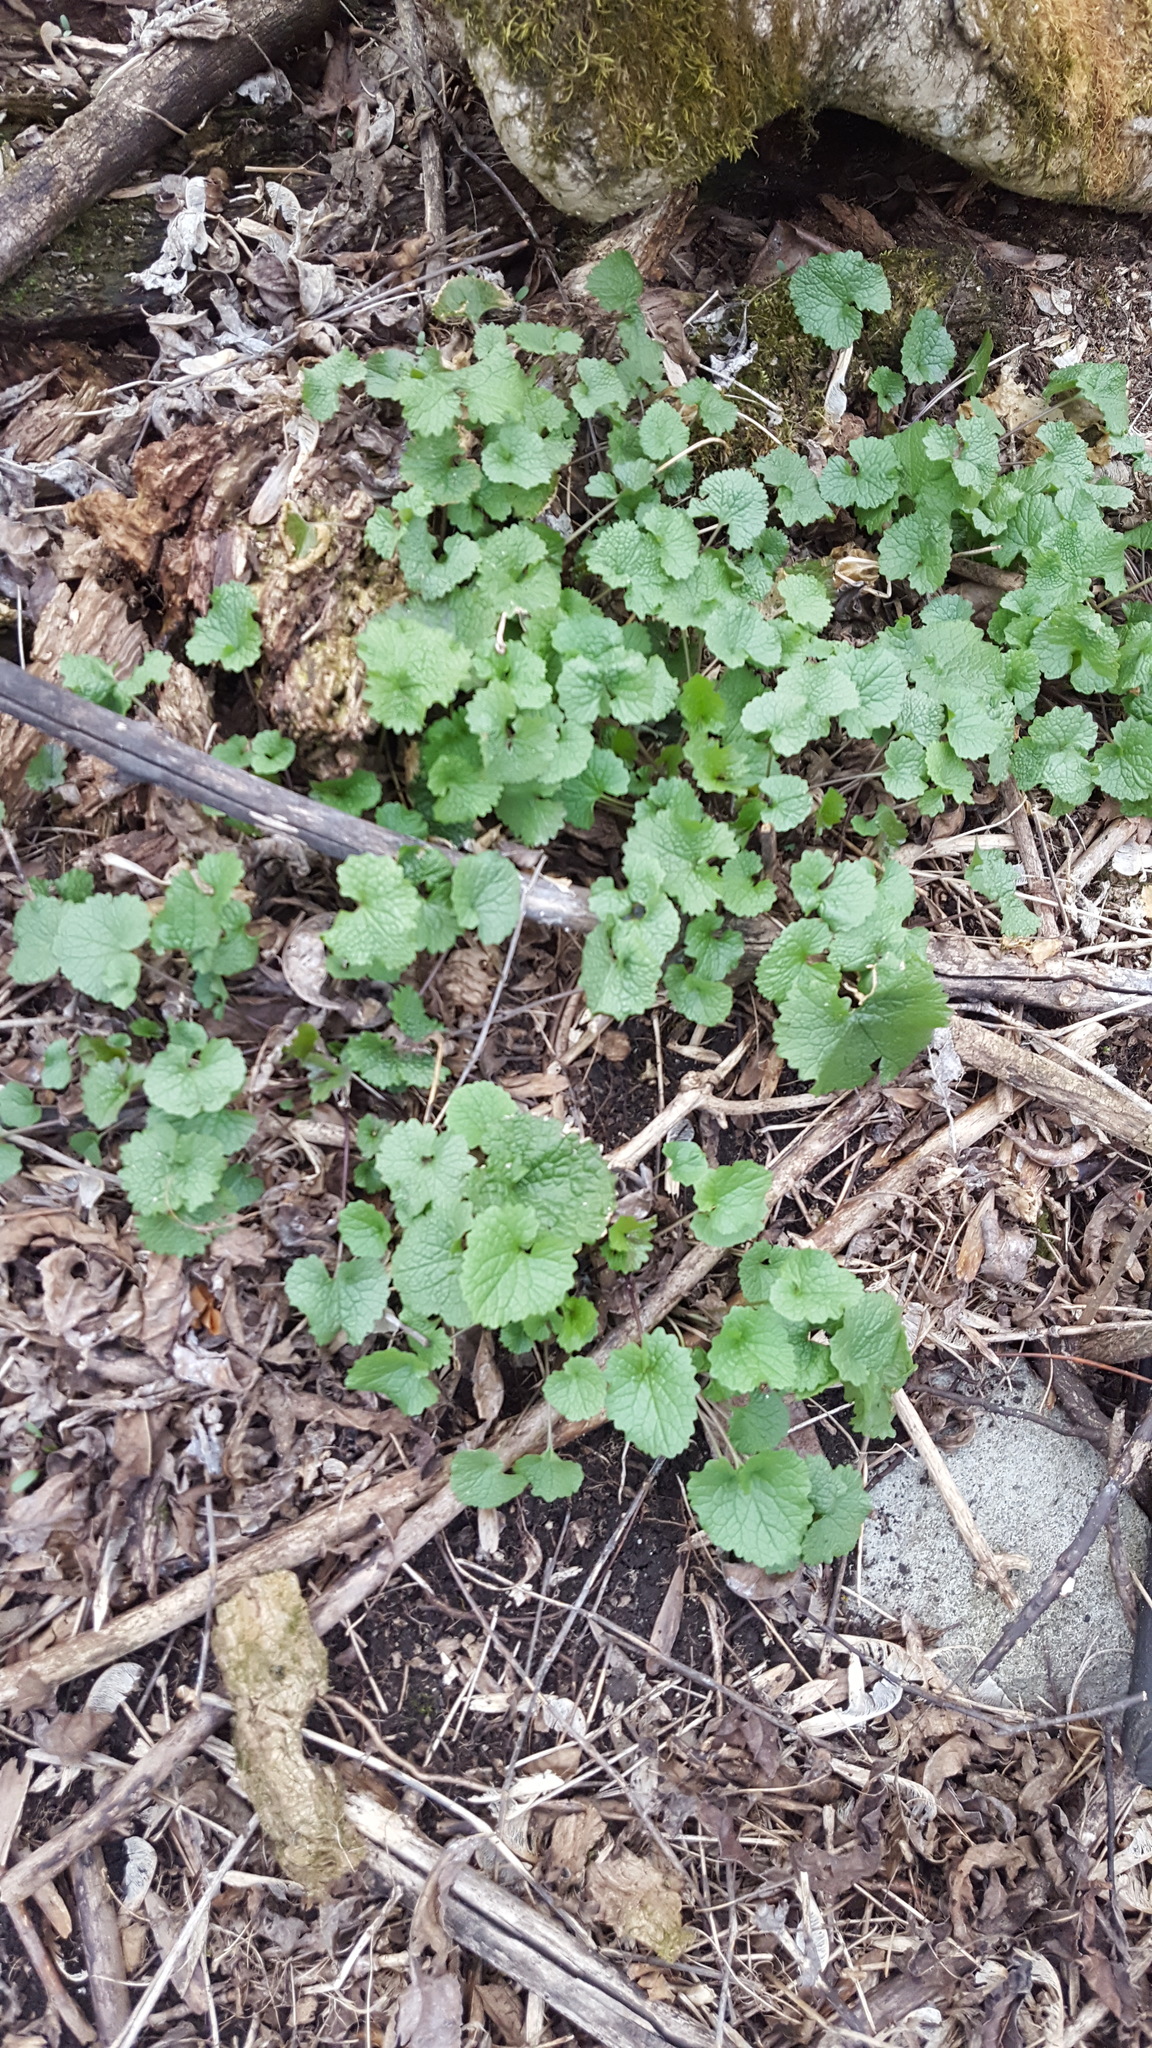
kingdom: Plantae
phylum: Tracheophyta
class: Magnoliopsida
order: Brassicales
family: Brassicaceae
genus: Alliaria
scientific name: Alliaria petiolata
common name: Garlic mustard
